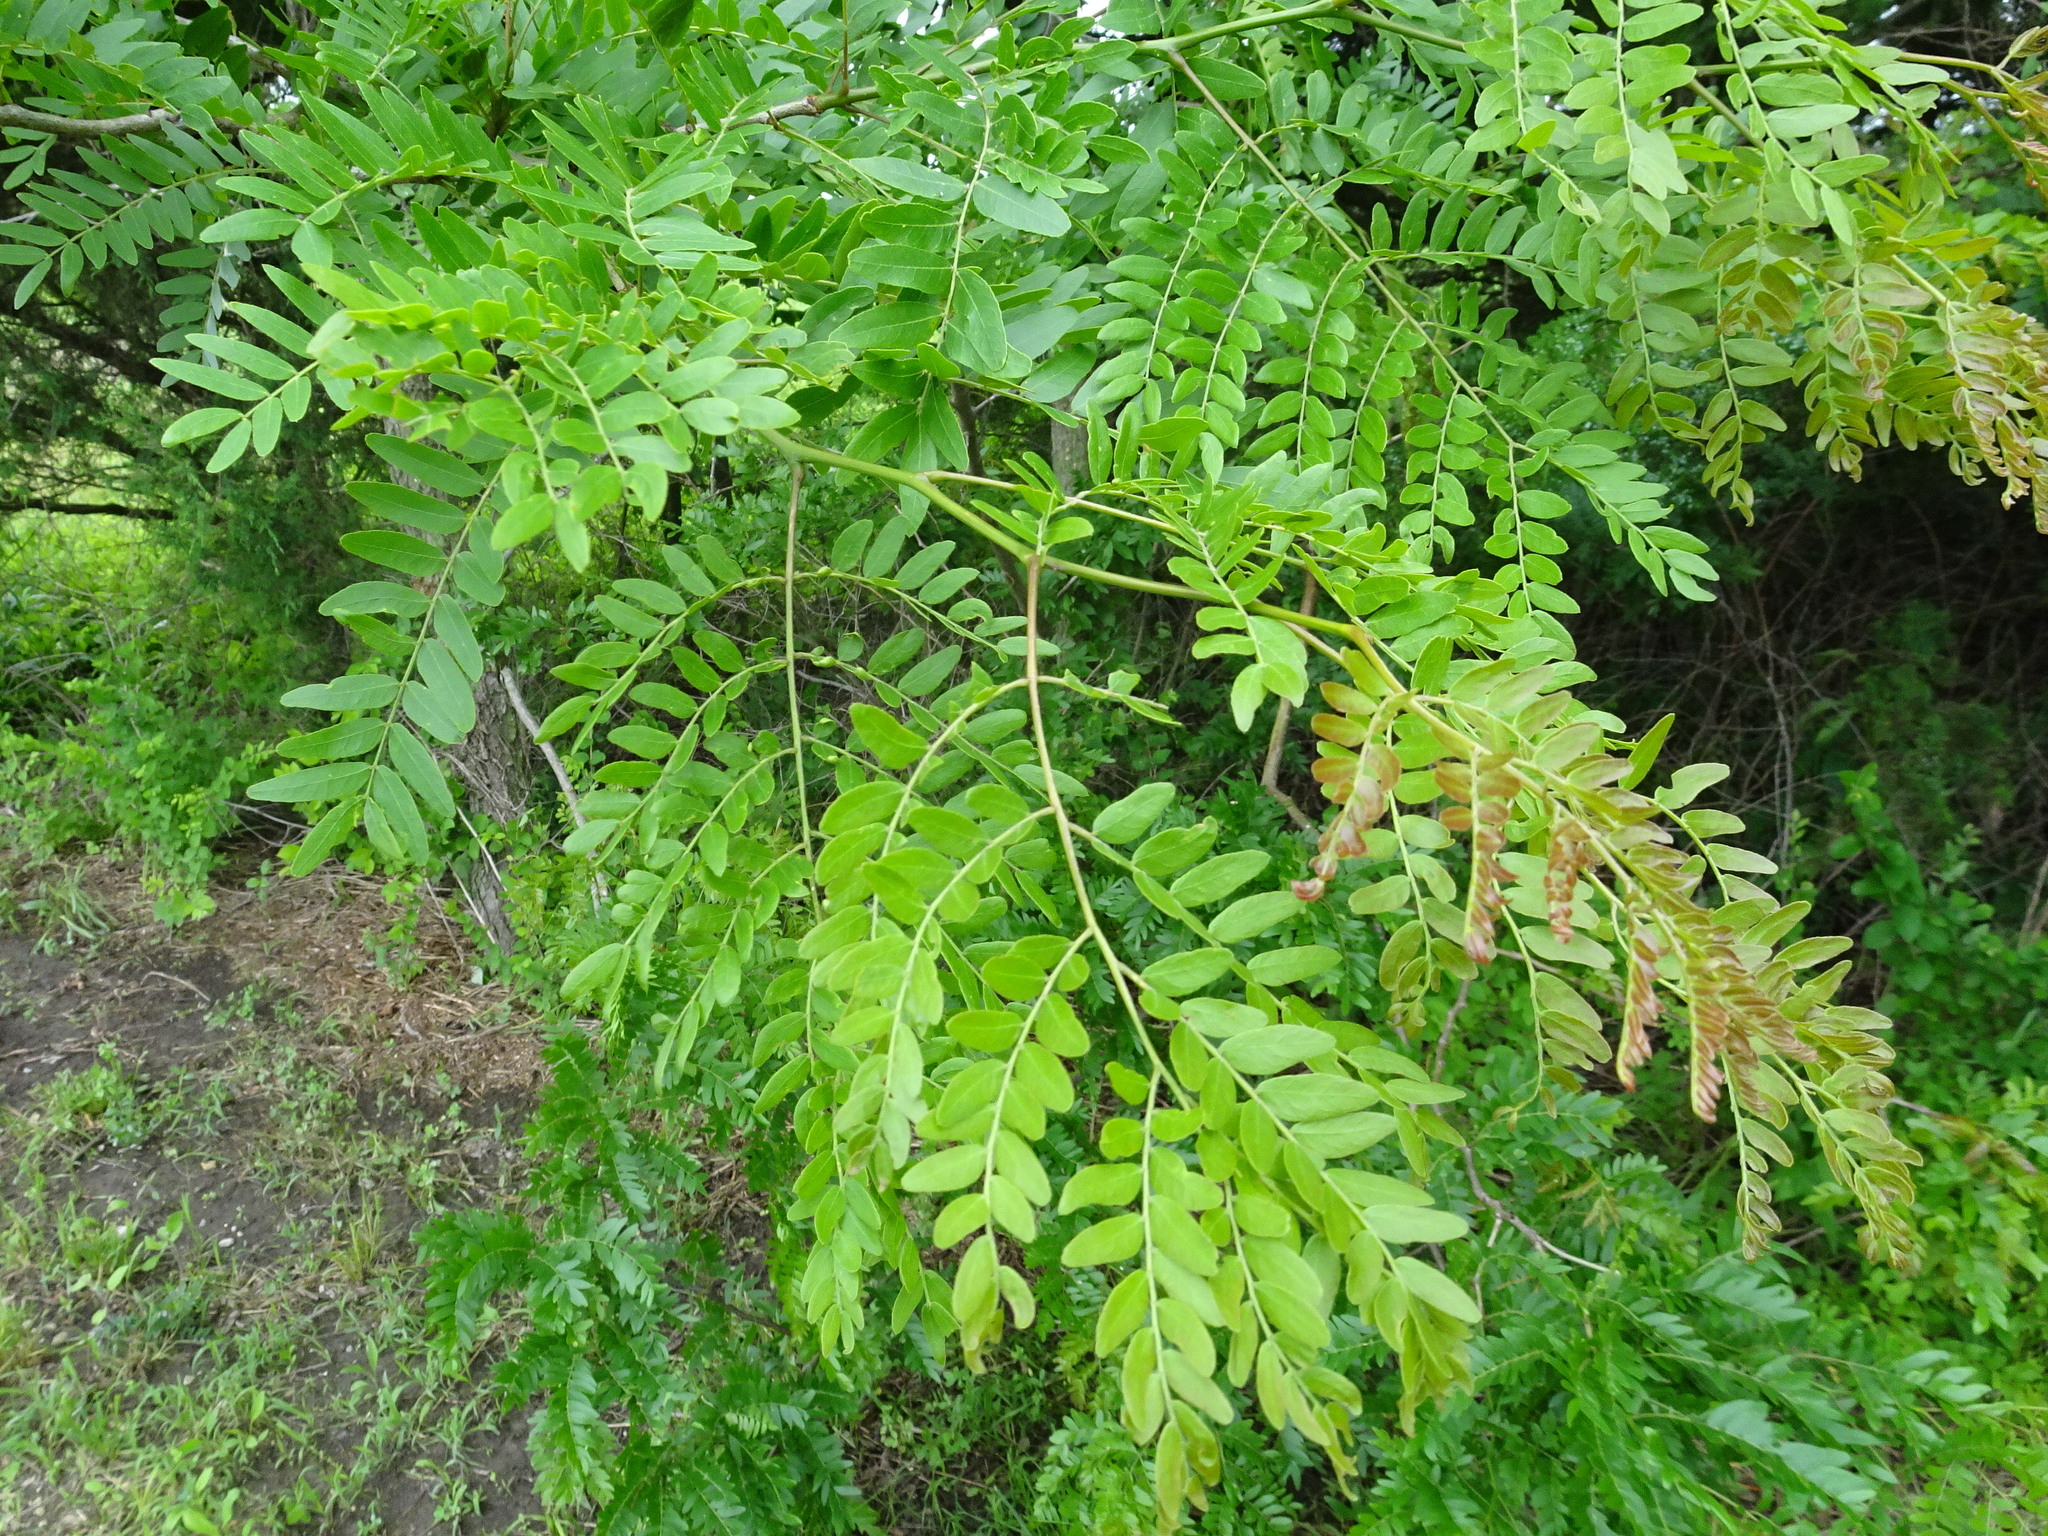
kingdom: Plantae
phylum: Tracheophyta
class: Magnoliopsida
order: Fabales
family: Fabaceae
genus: Gleditsia
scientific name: Gleditsia triacanthos
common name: Common honeylocust
